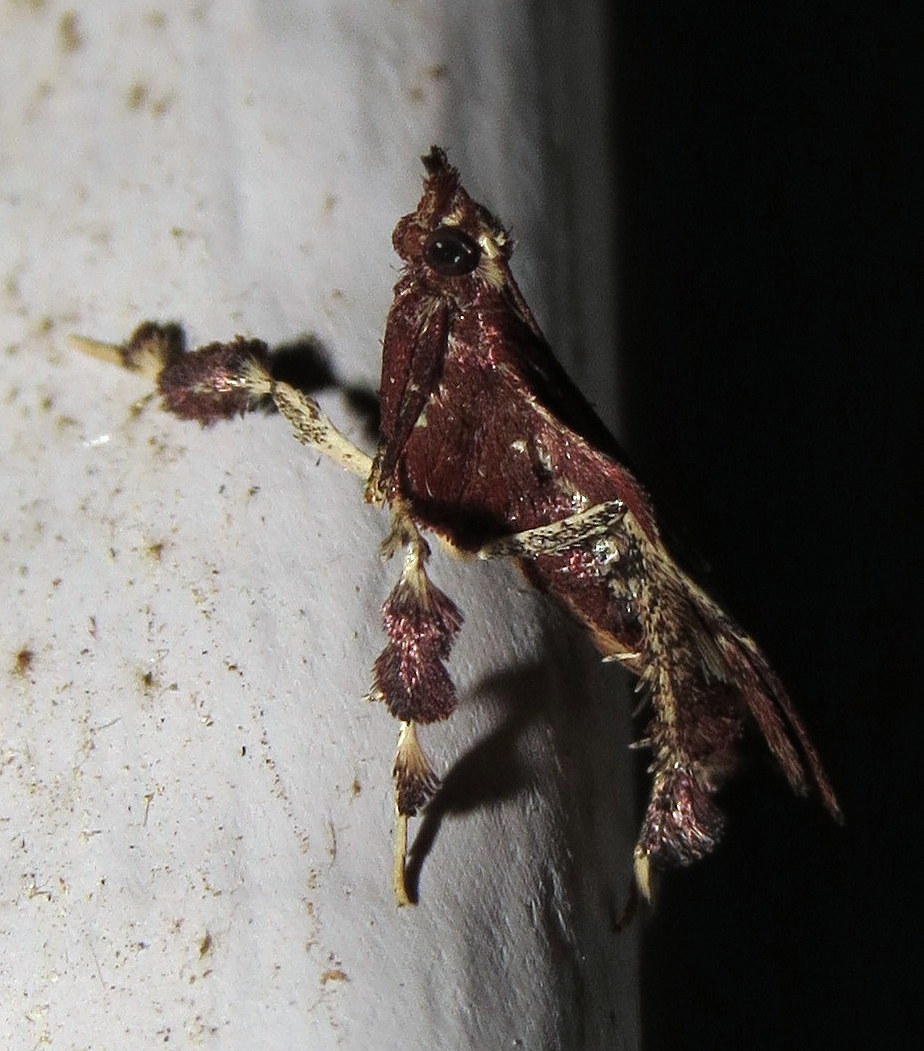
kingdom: Animalia
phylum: Arthropoda
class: Insecta
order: Lepidoptera
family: Pyralidae
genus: Galasa
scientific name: Galasa nigrinodis
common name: Boxwood leaftier moth
